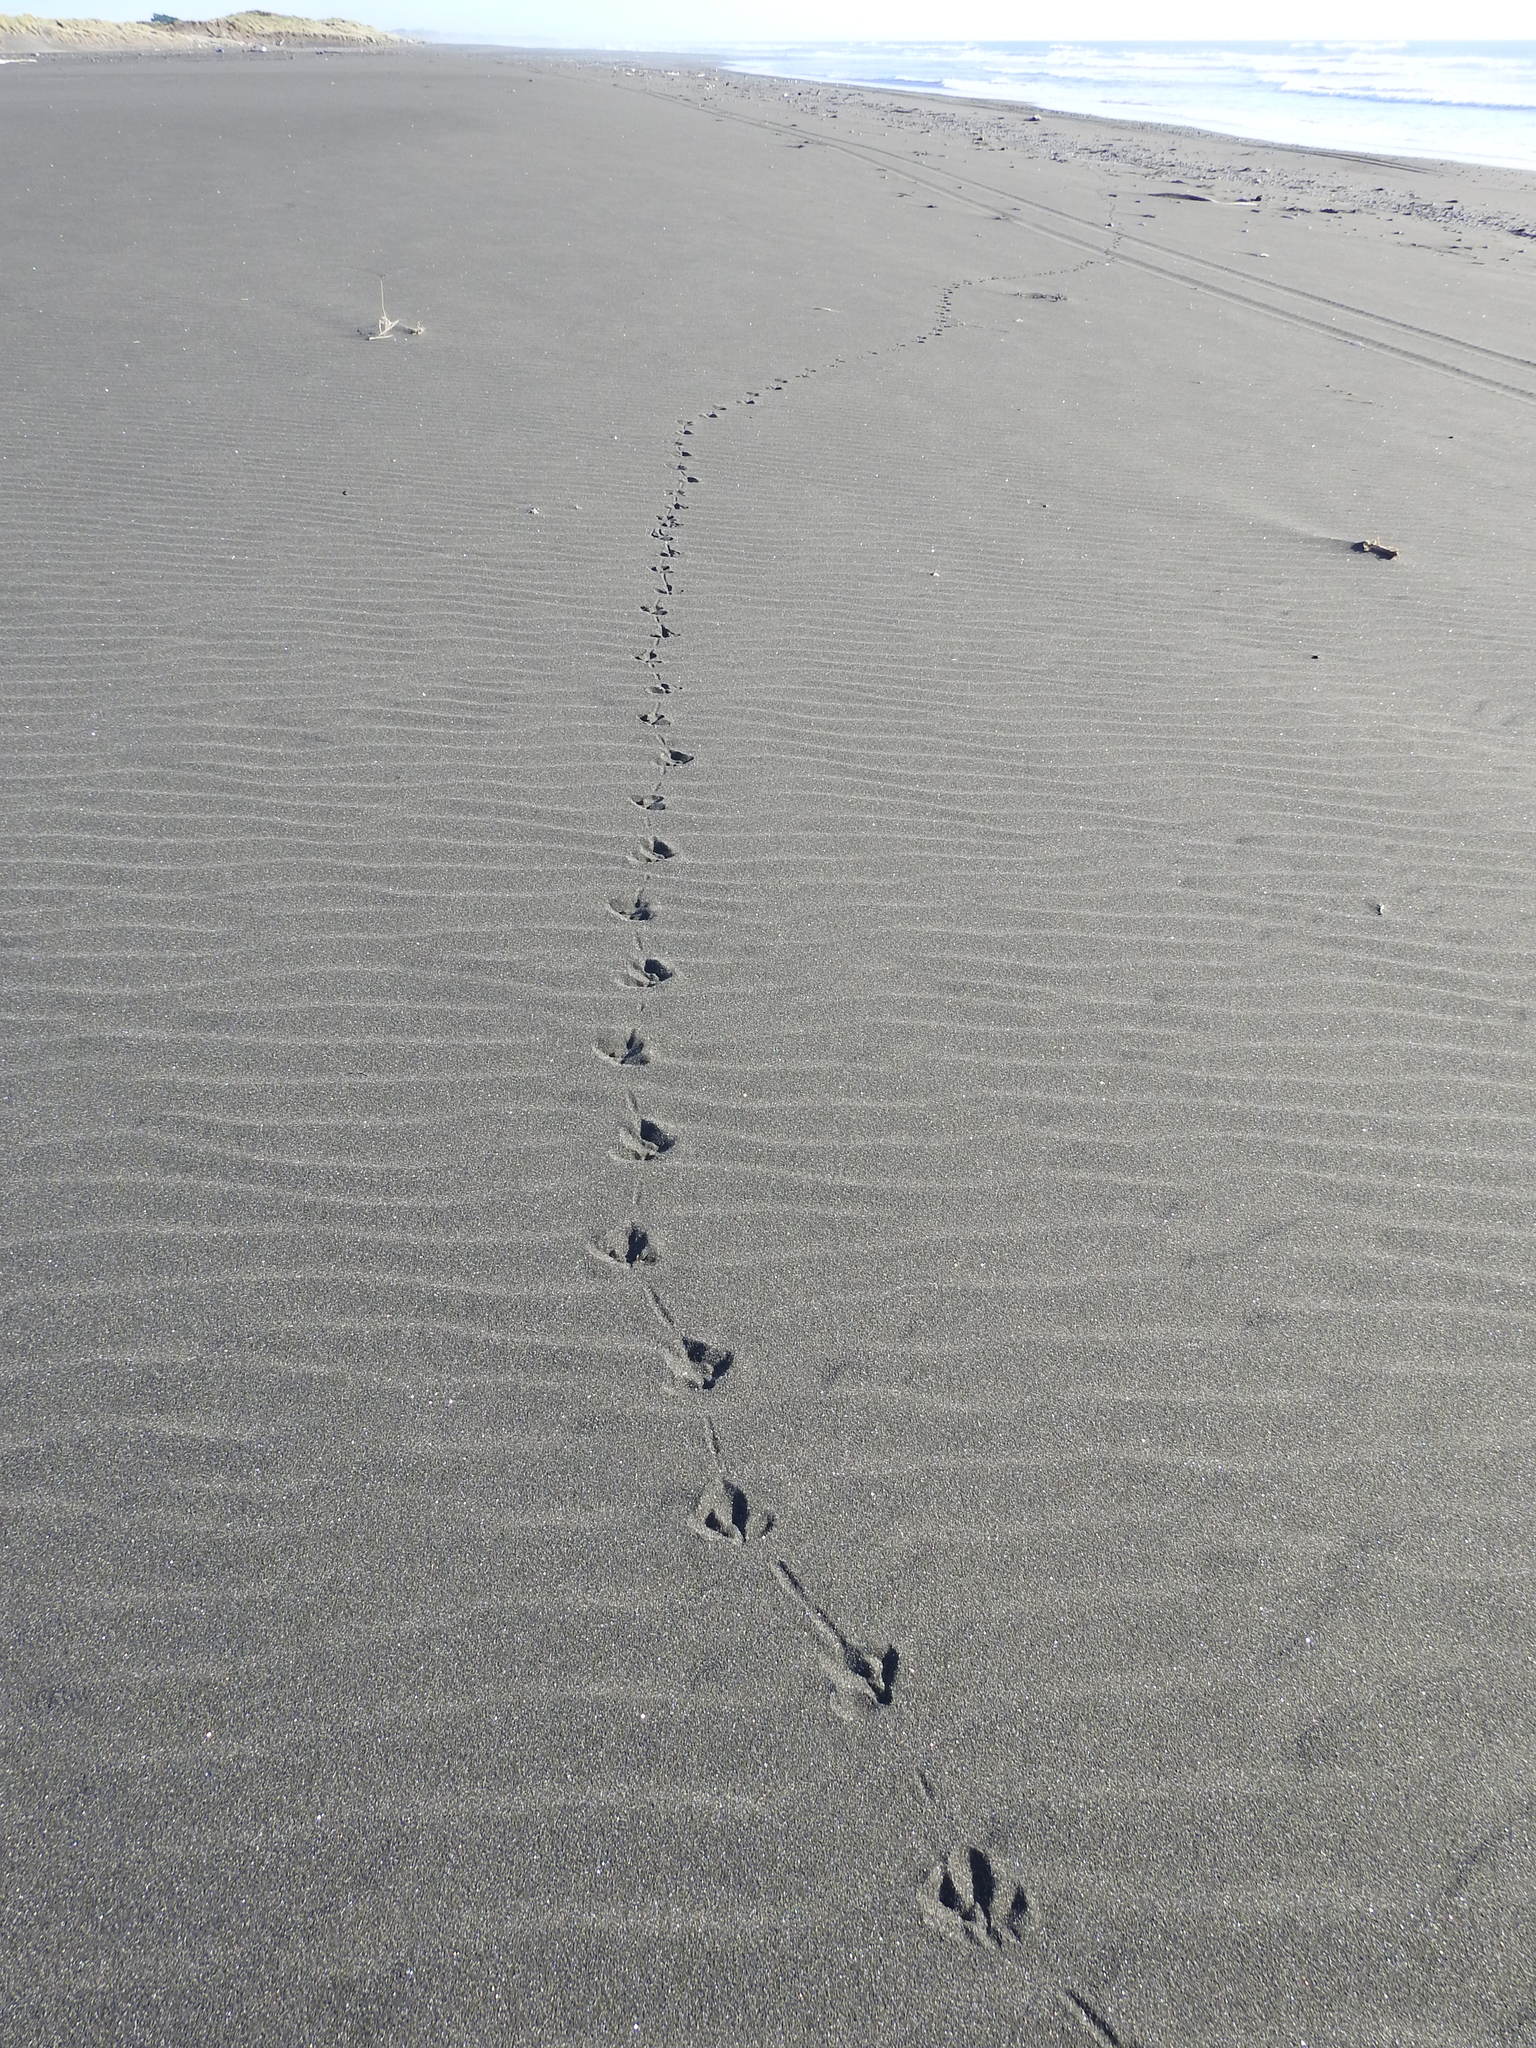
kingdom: Animalia
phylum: Chordata
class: Aves
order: Charadriiformes
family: Haematopodidae
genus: Haematopus
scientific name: Haematopus unicolor
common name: Variable oystercatcher
